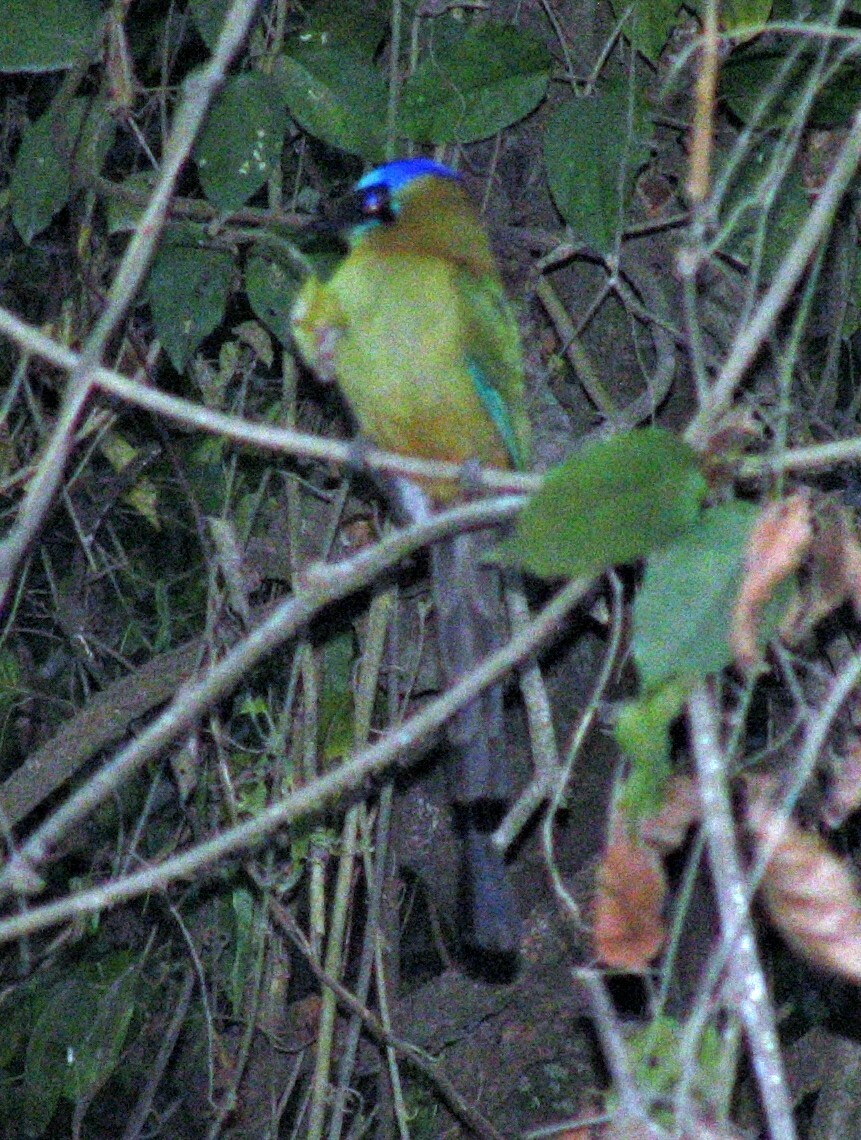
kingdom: Animalia
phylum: Chordata
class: Aves
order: Coraciiformes
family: Momotidae
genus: Momotus
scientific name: Momotus momota
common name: Amazonian motmot
